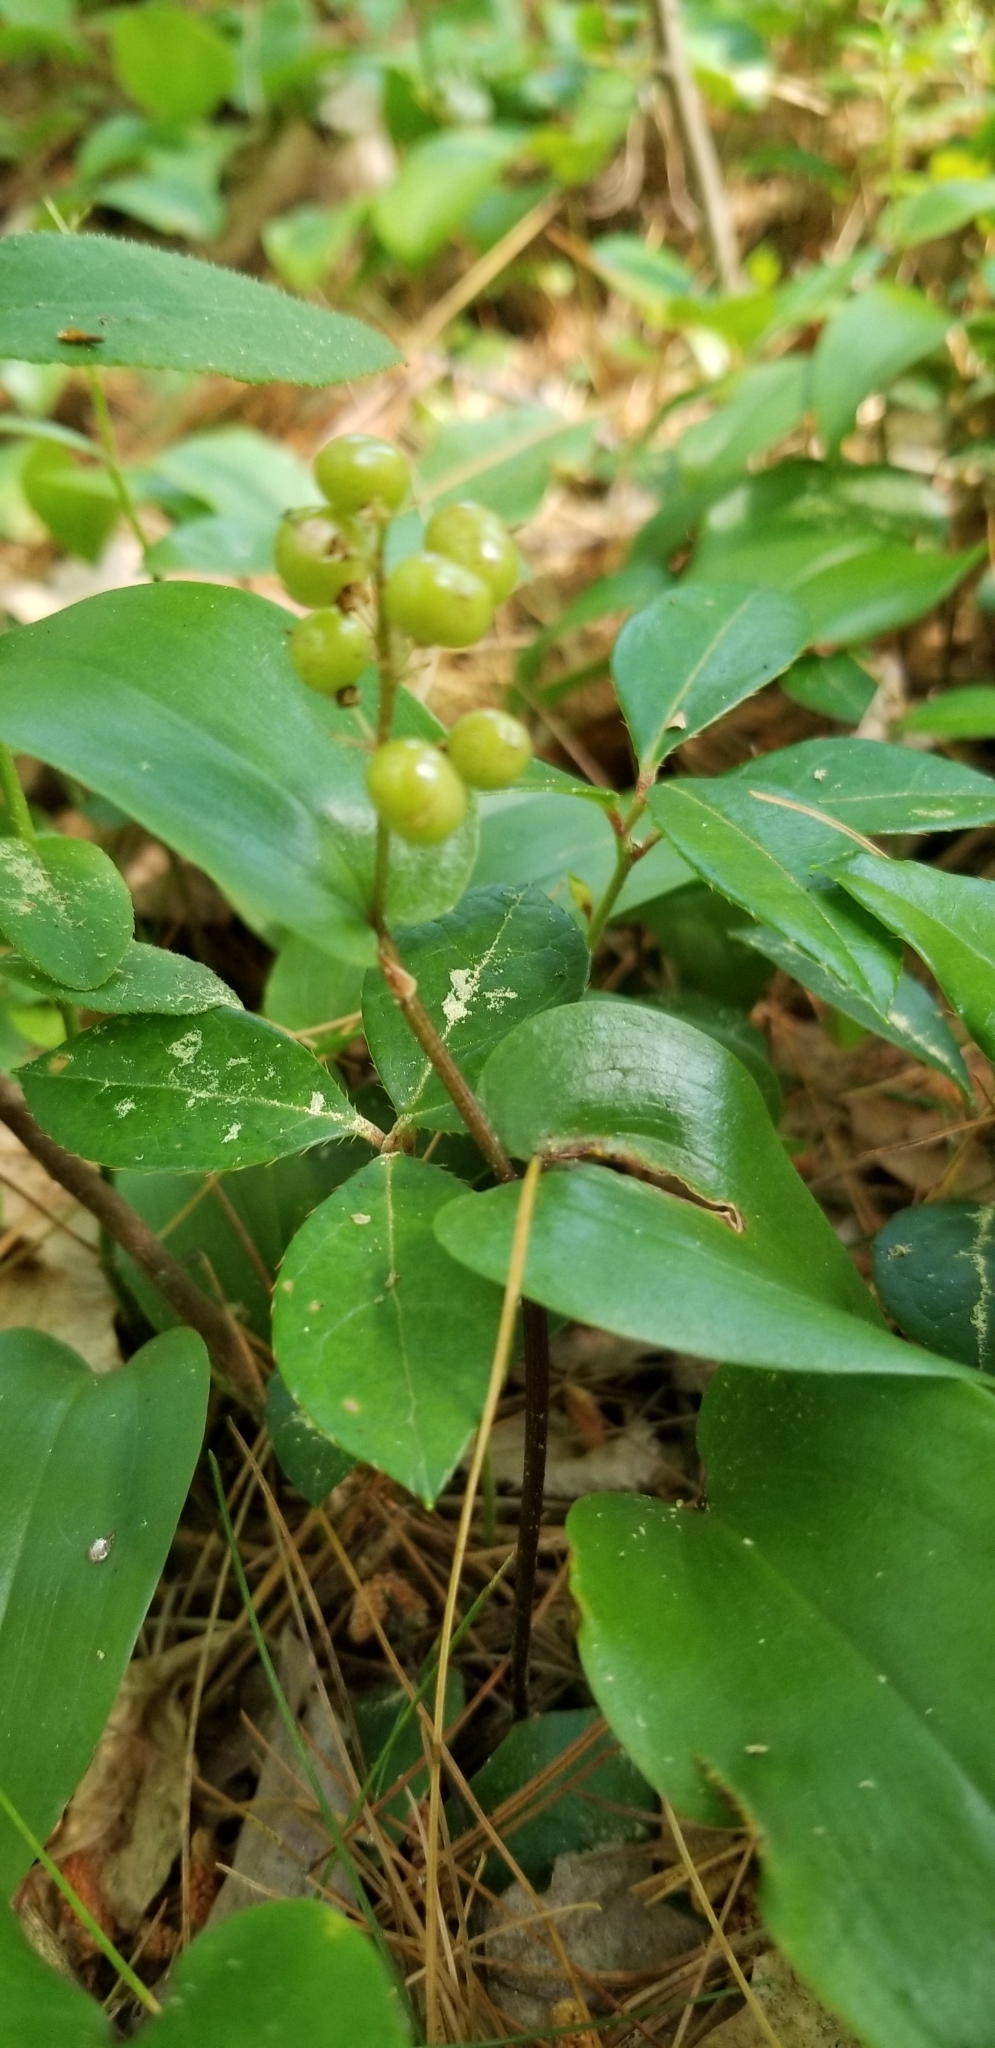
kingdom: Plantae
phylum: Tracheophyta
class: Liliopsida
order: Asparagales
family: Asparagaceae
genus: Maianthemum
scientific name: Maianthemum canadense
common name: False lily-of-the-valley
